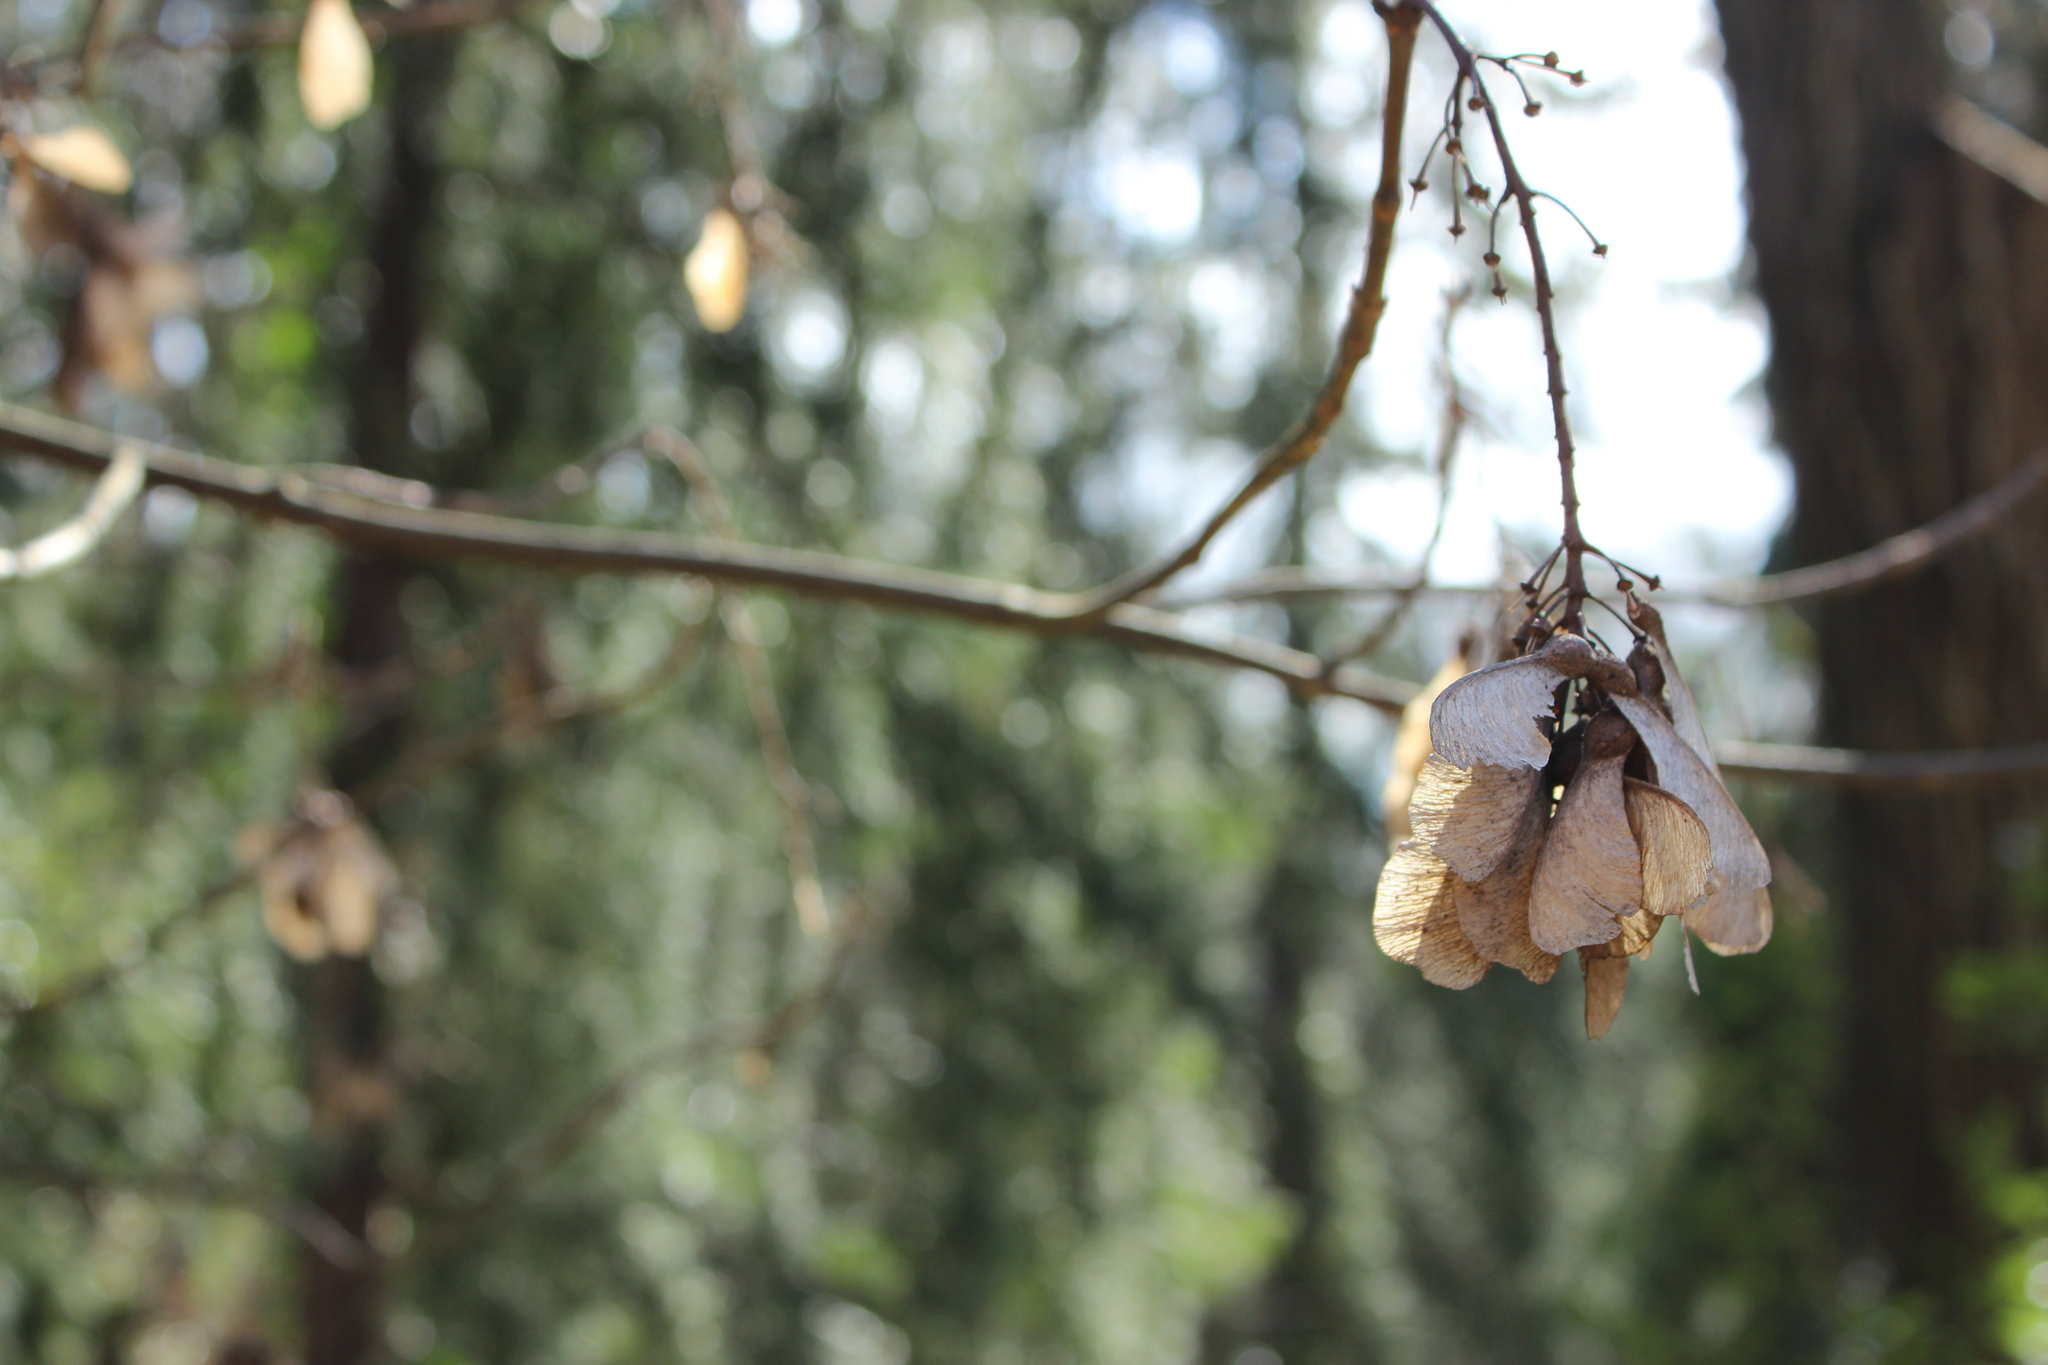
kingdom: Plantae
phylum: Tracheophyta
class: Magnoliopsida
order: Sapindales
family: Sapindaceae
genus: Acer
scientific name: Acer pseudoplatanus
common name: Sycamore
